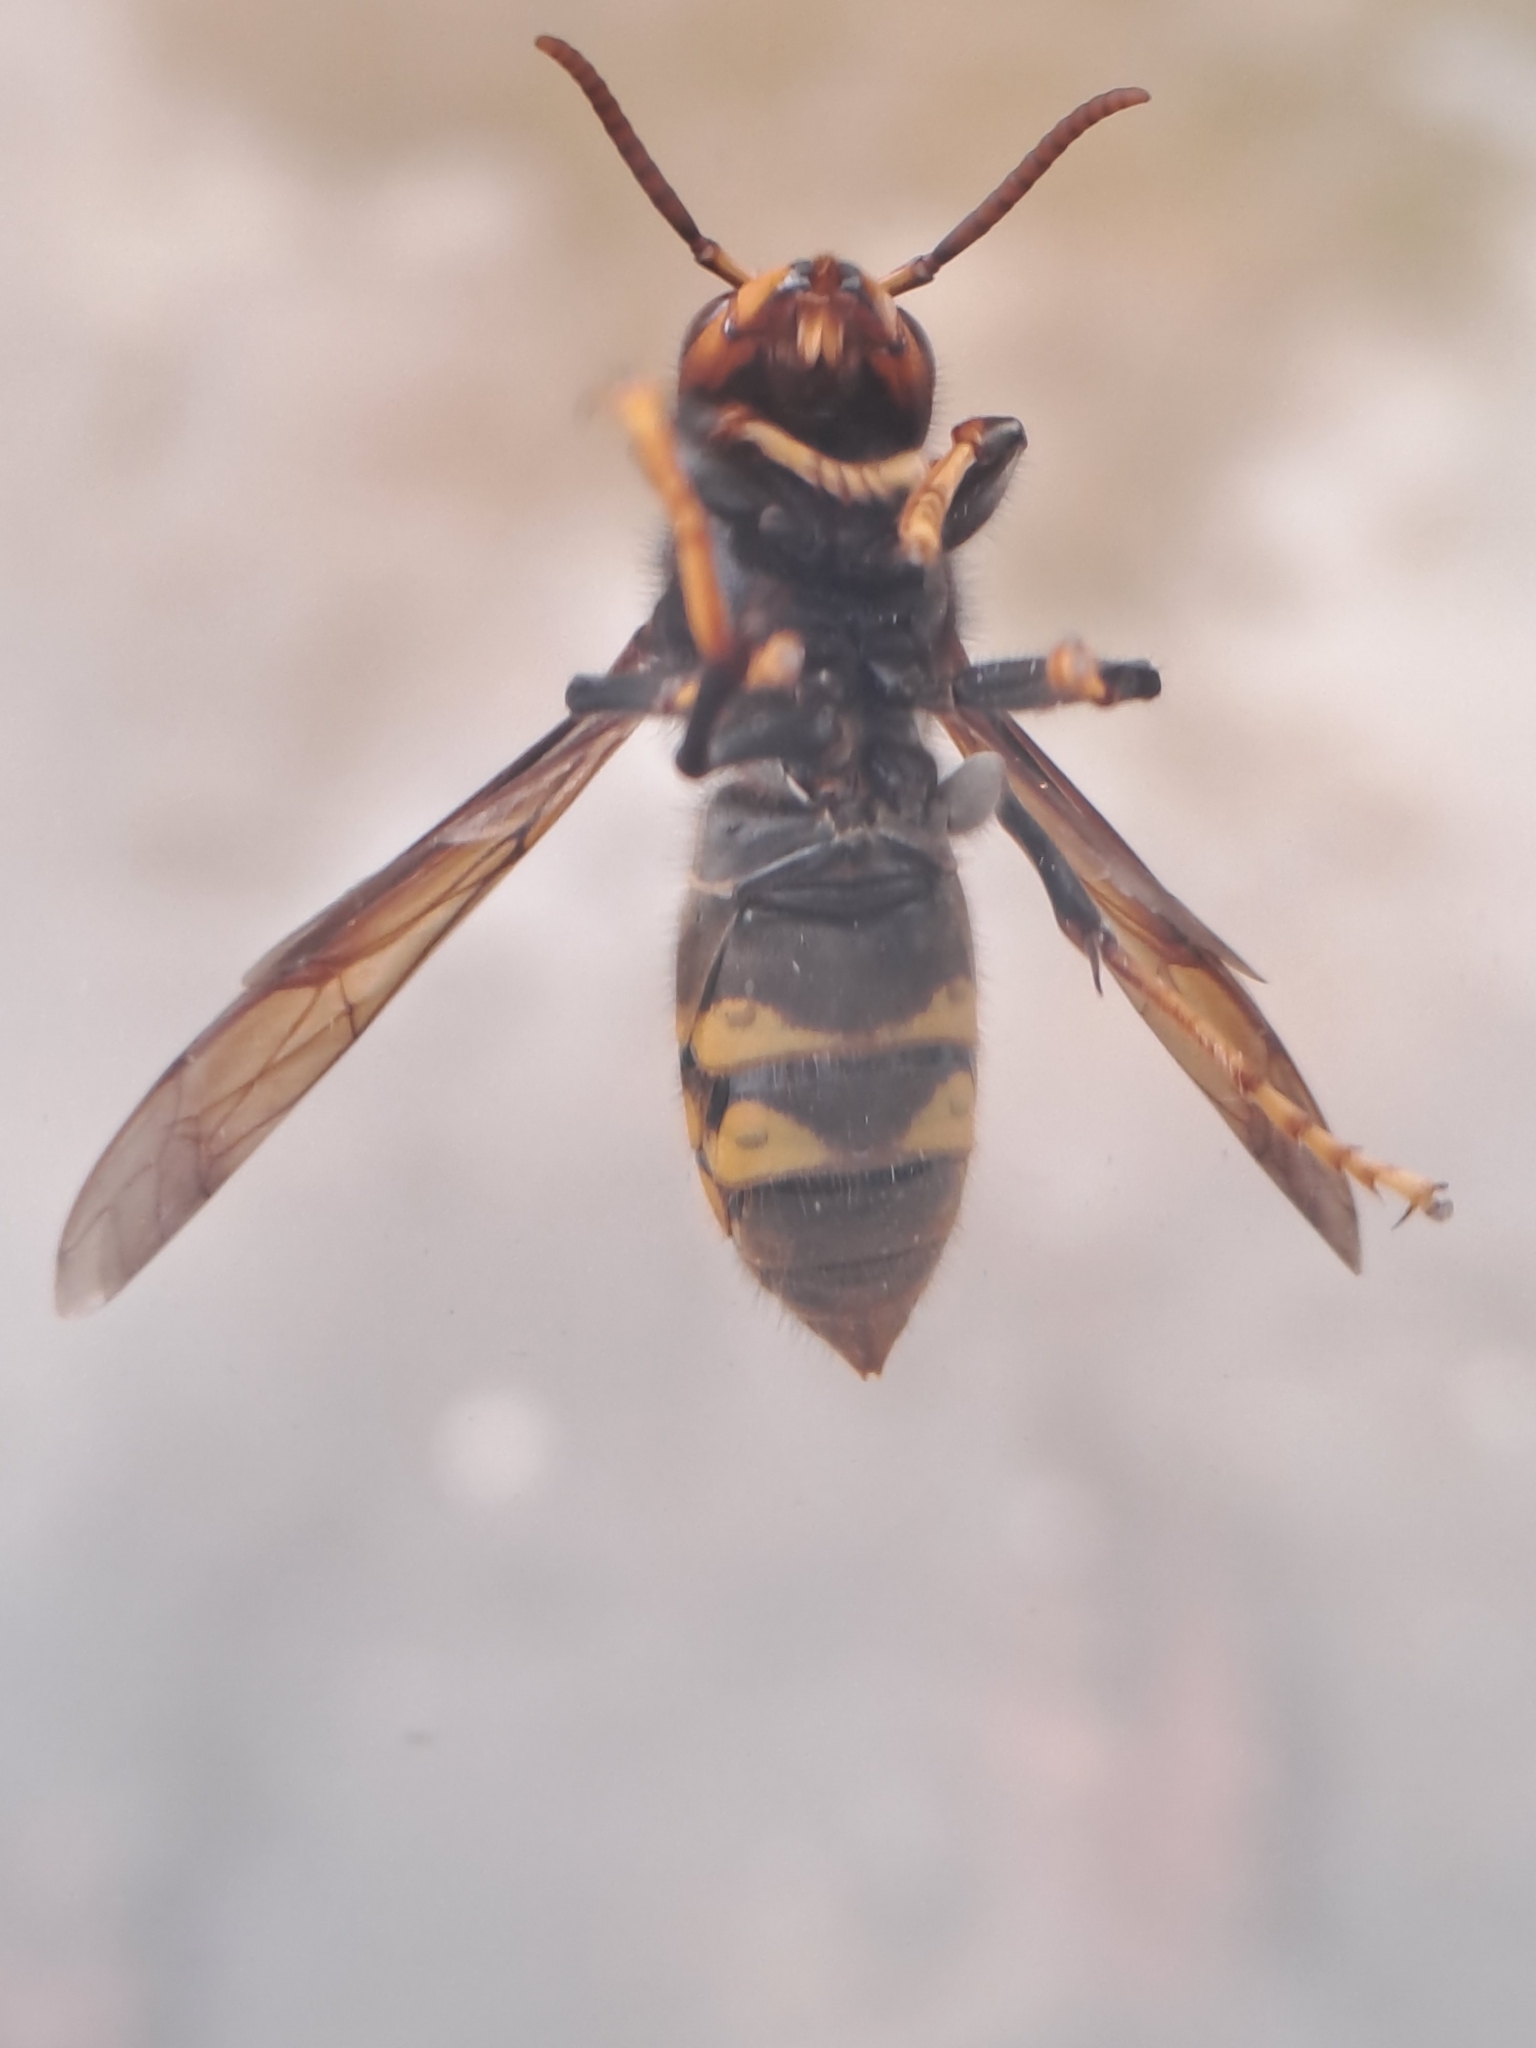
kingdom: Animalia
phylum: Arthropoda
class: Insecta
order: Hymenoptera
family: Vespidae
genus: Vespa
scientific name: Vespa velutina
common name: Asian hornet
